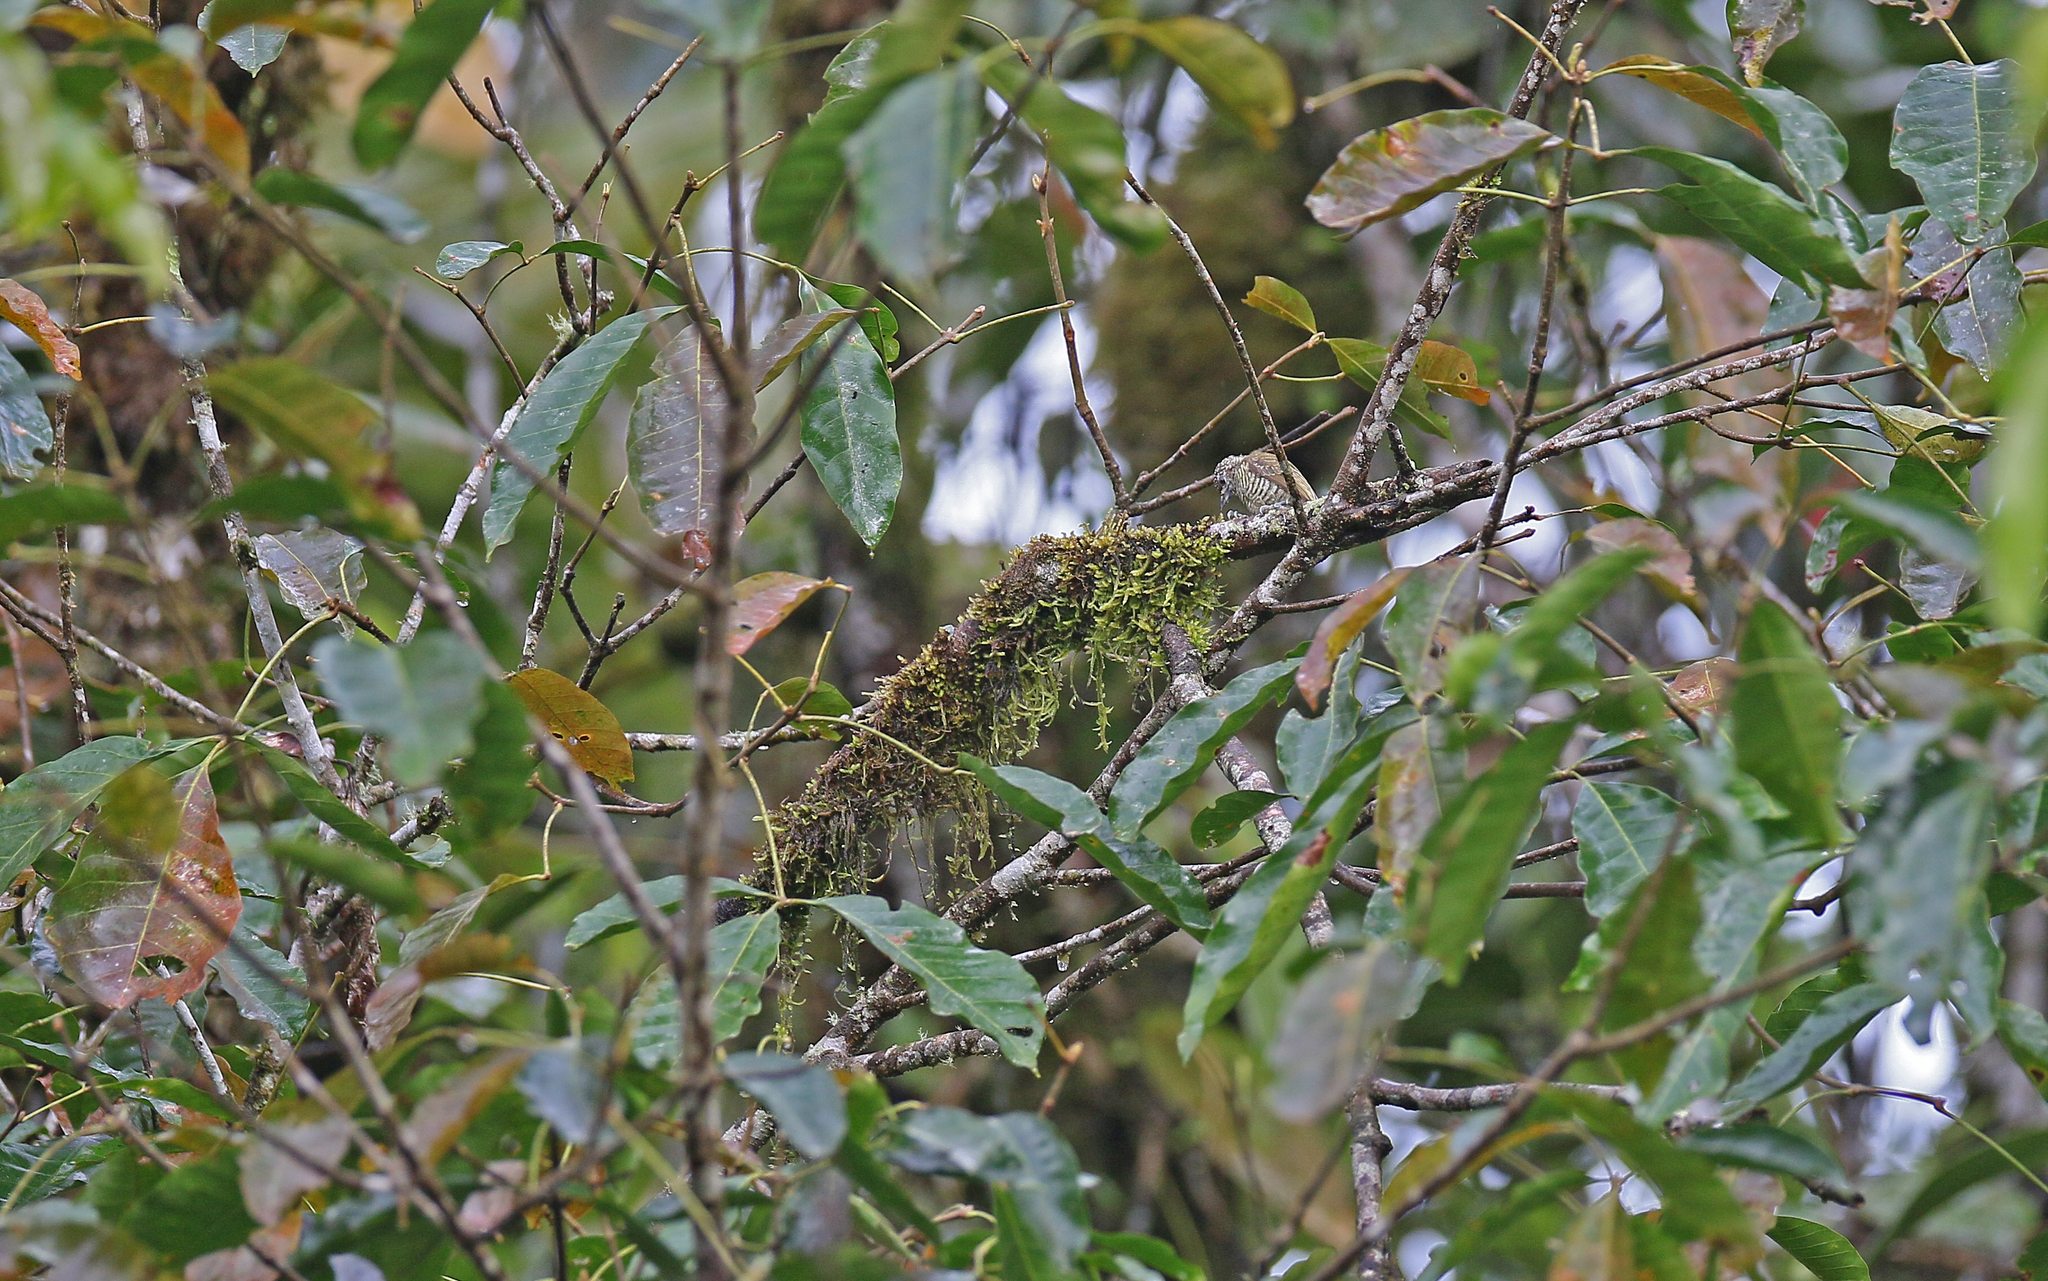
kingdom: Animalia
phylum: Chordata
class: Aves
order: Piciformes
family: Picidae
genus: Picumnus
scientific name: Picumnus lafresnayi
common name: Lafresnaye's piculet
